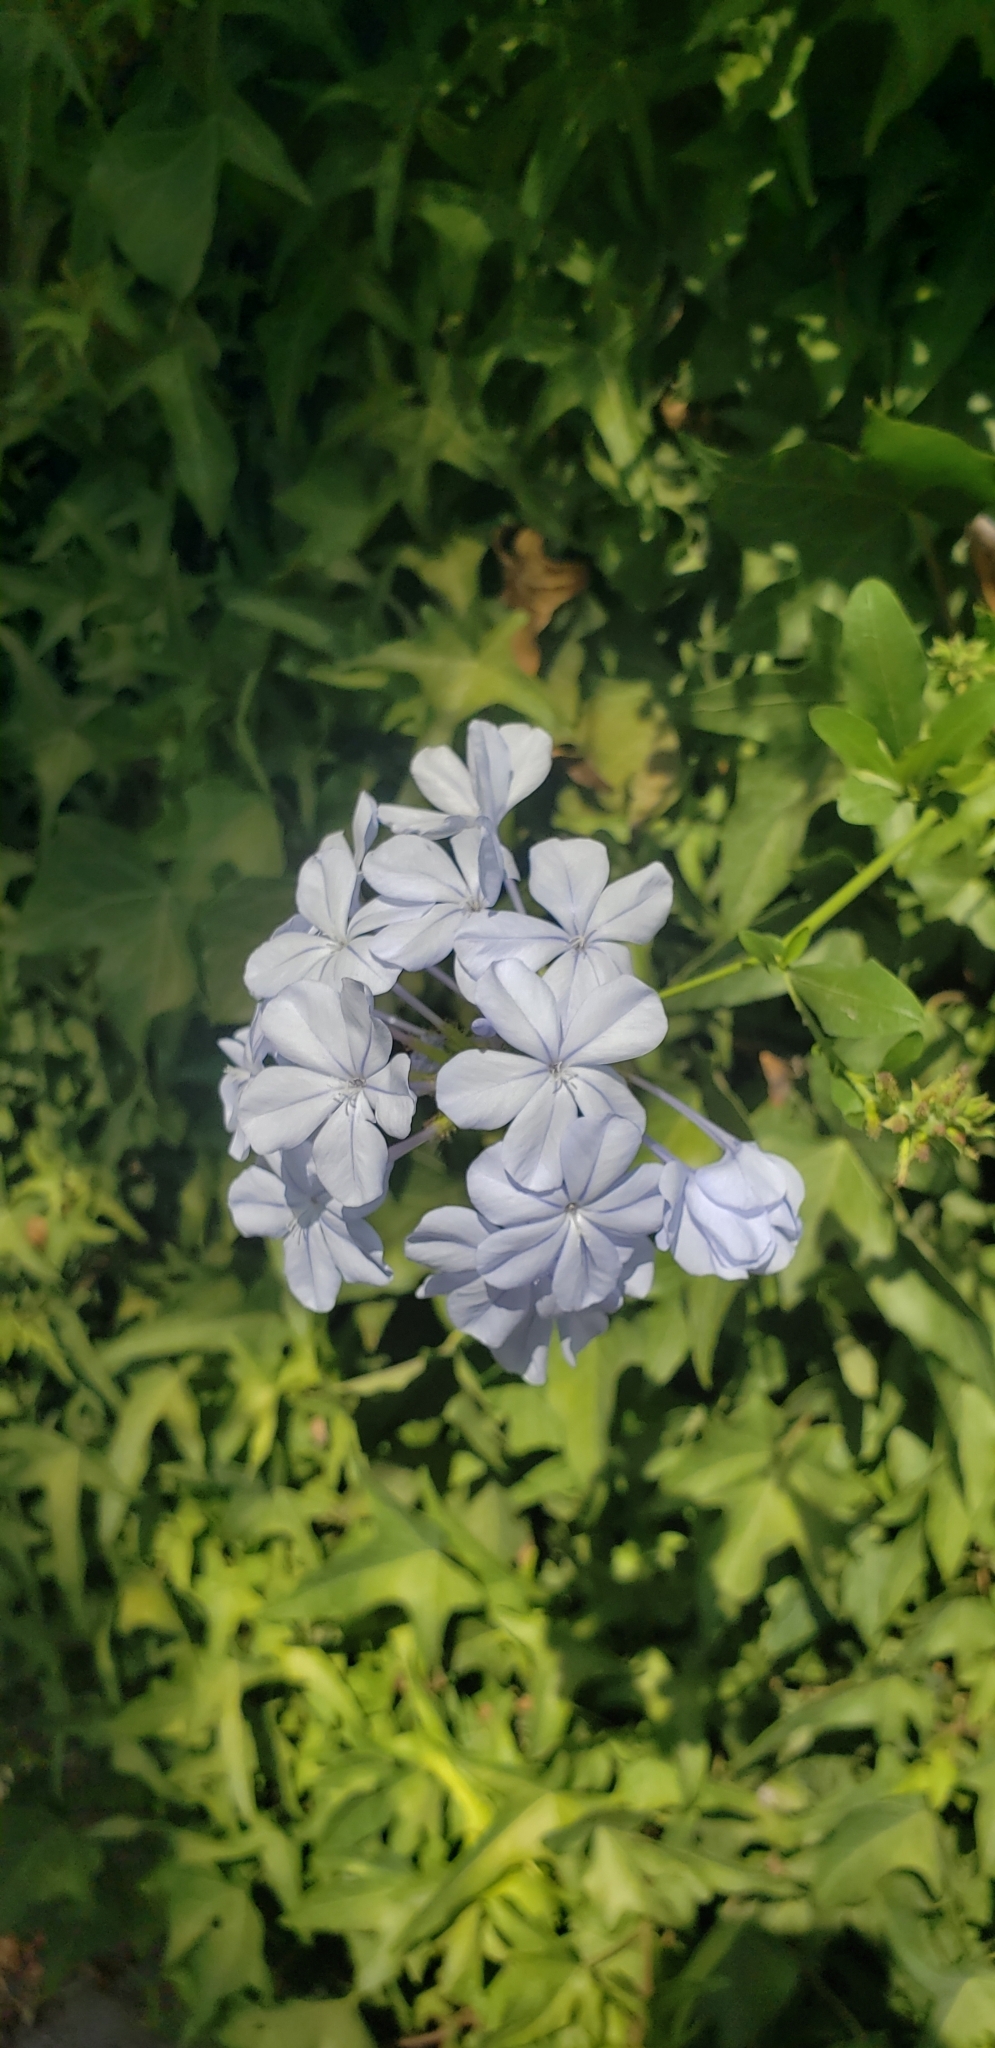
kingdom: Plantae
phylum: Tracheophyta
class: Magnoliopsida
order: Caryophyllales
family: Plumbaginaceae
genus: Plumbago
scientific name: Plumbago auriculata
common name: Cape leadwort
